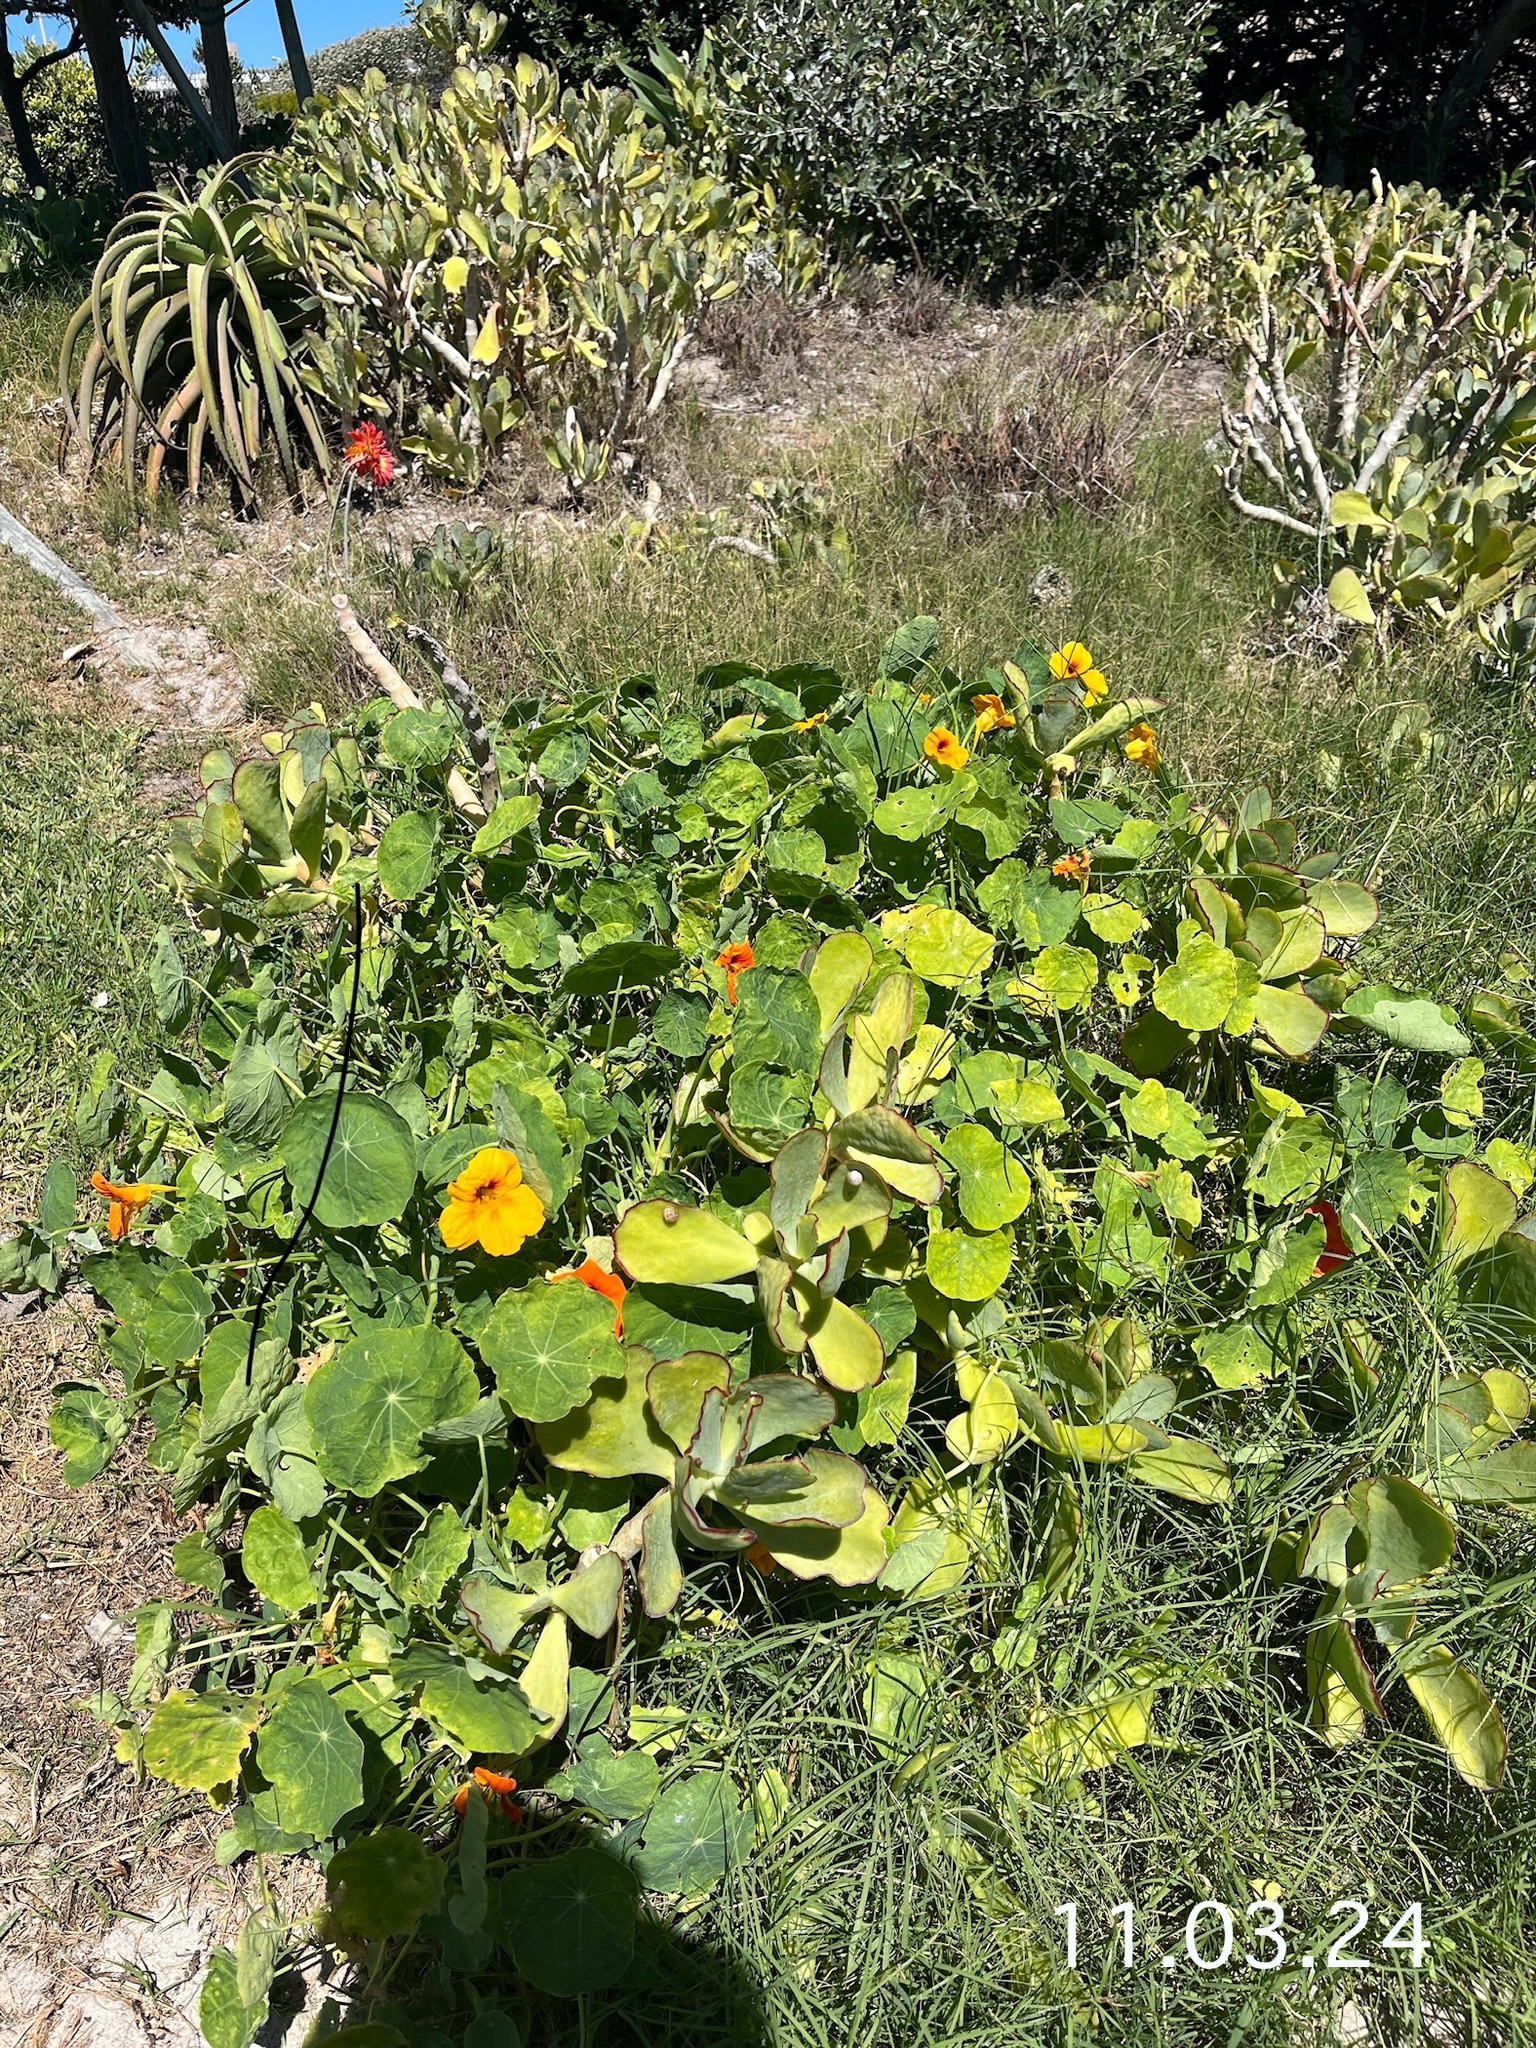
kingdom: Plantae
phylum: Tracheophyta
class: Magnoliopsida
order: Brassicales
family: Tropaeolaceae
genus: Tropaeolum
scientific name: Tropaeolum majus
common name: Nasturtium
